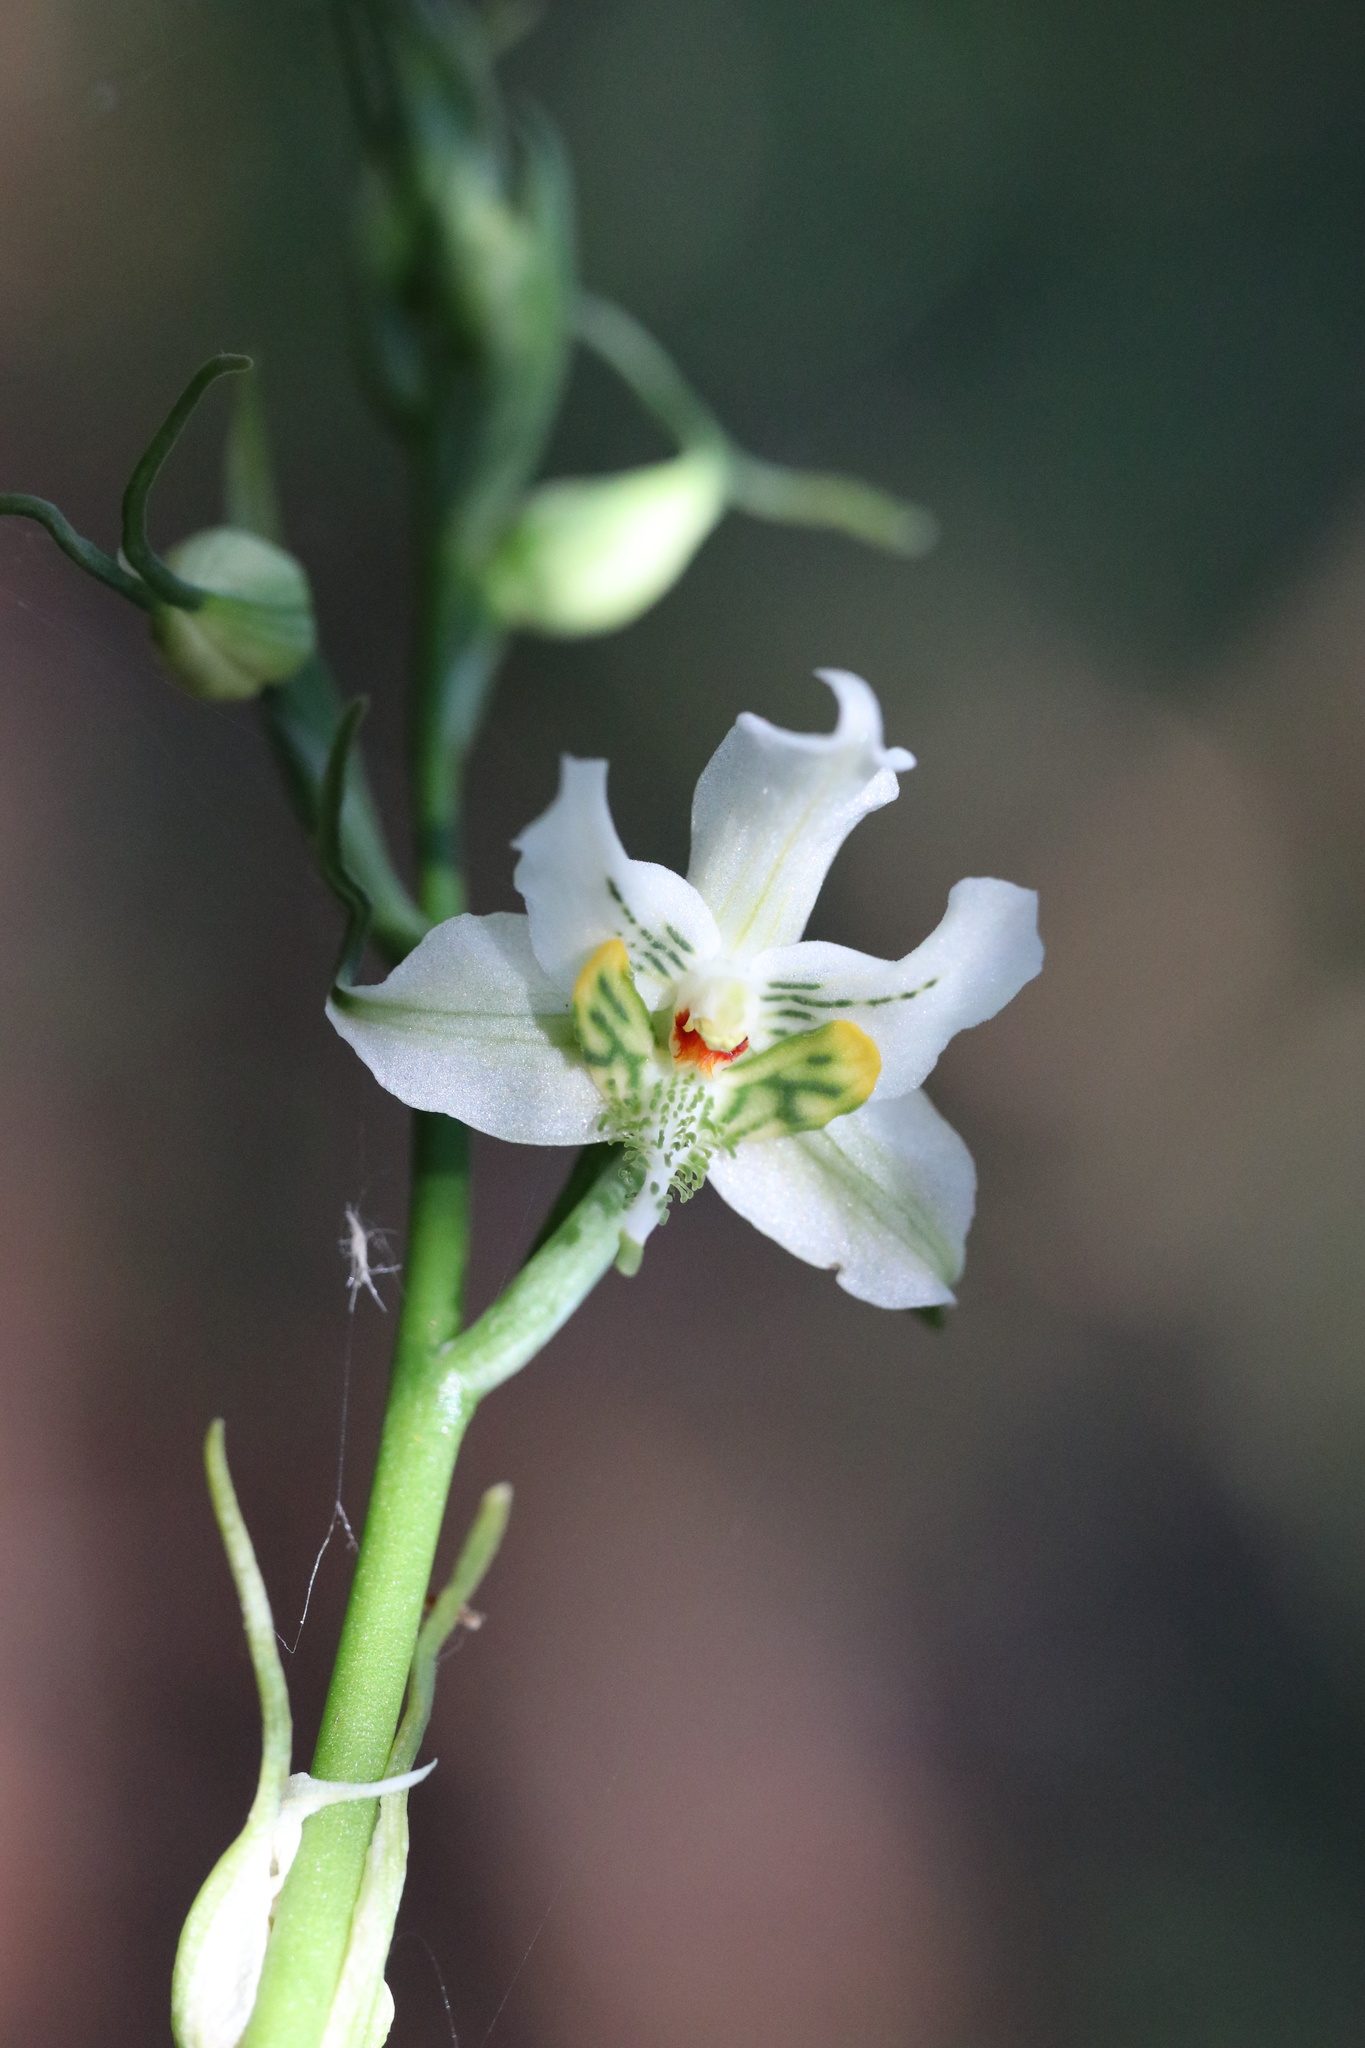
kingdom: Plantae
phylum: Tracheophyta
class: Liliopsida
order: Asparagales
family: Orchidaceae
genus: Gavilea
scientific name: Gavilea araucana
